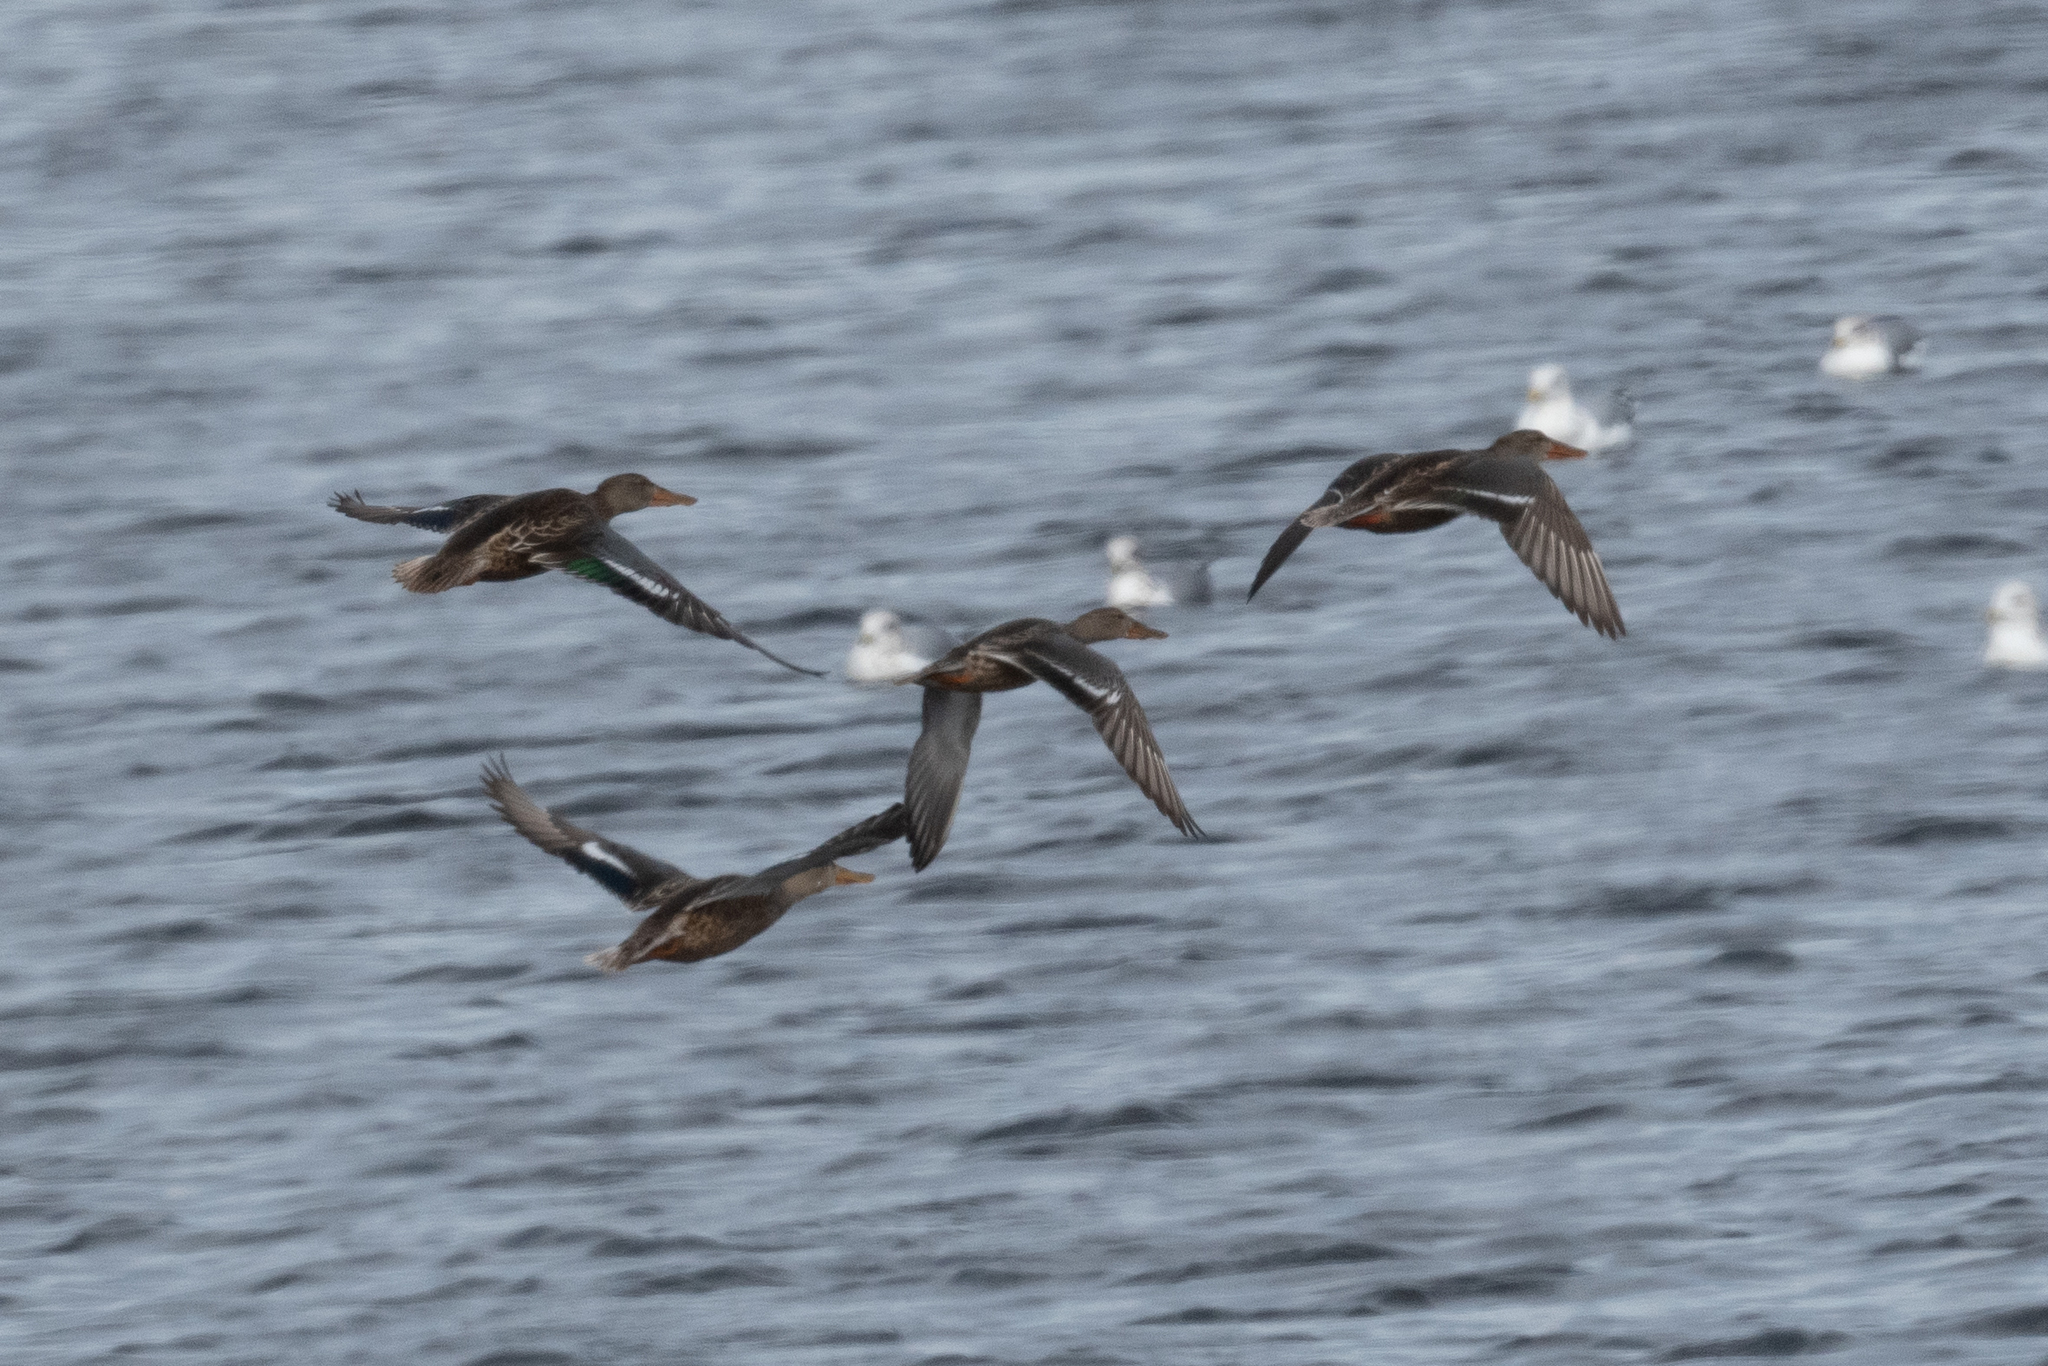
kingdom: Animalia
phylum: Chordata
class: Aves
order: Anseriformes
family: Anatidae
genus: Spatula
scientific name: Spatula clypeata
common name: Northern shoveler
